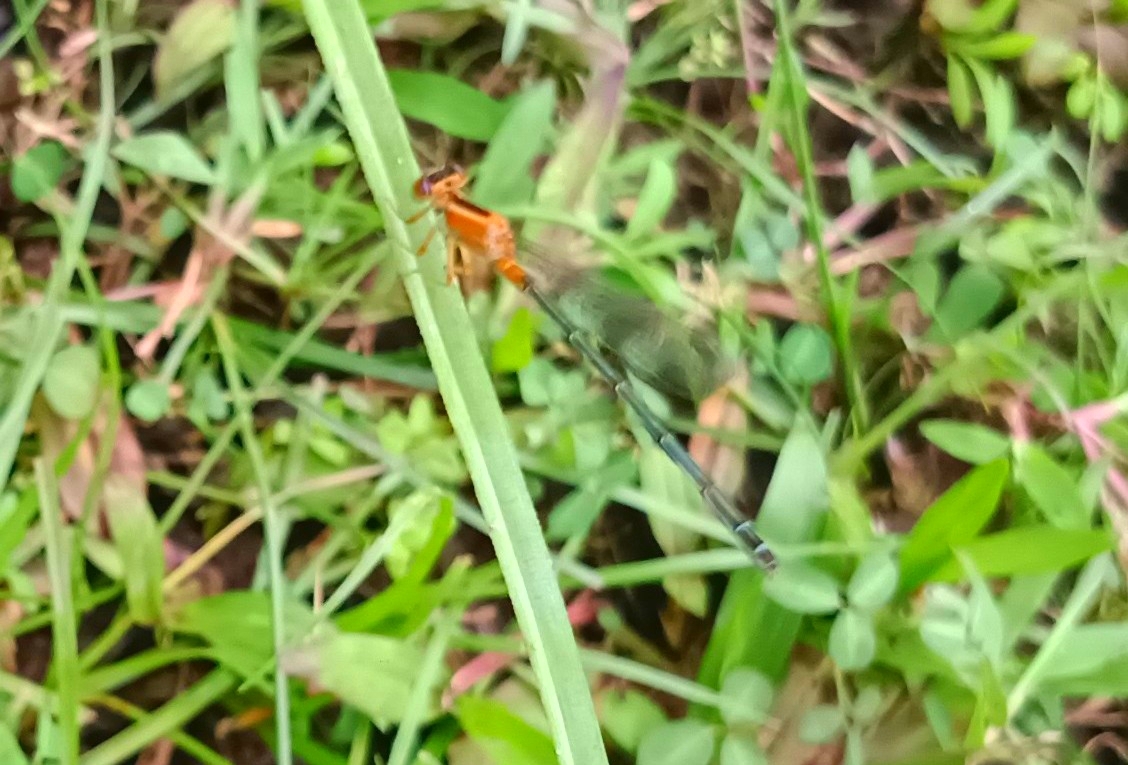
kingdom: Animalia
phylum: Arthropoda
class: Insecta
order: Odonata
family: Coenagrionidae
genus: Ischnura
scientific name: Ischnura senegalensis
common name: Tropical bluetail
